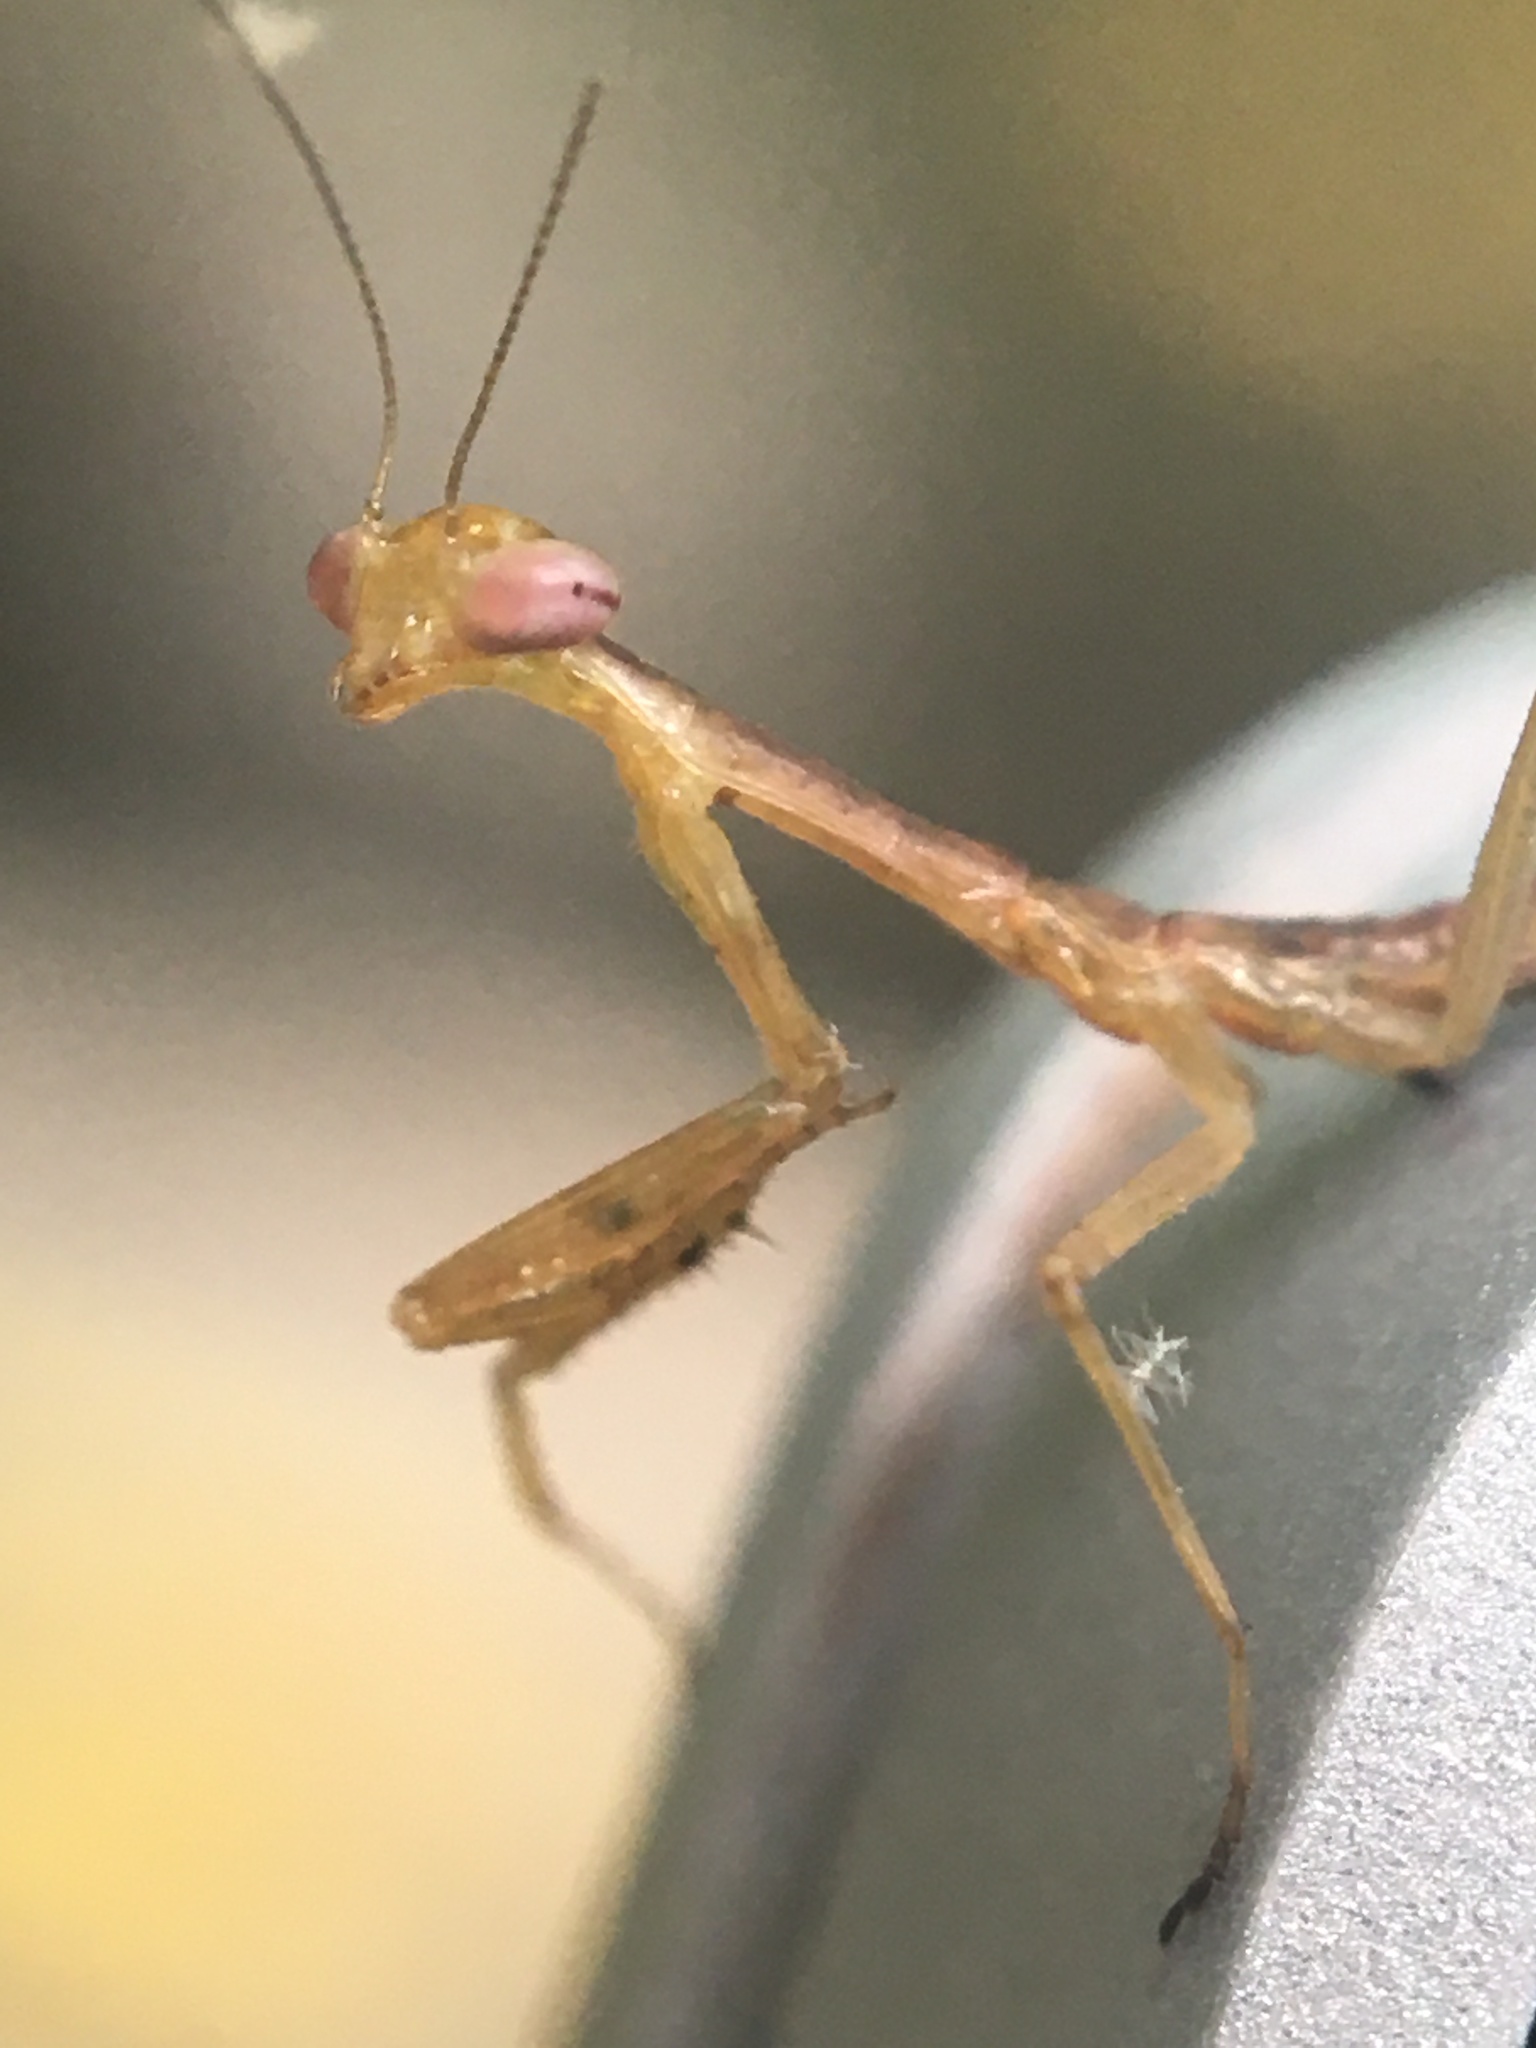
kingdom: Animalia
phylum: Arthropoda
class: Insecta
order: Mantodea
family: Mantidae
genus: Stagmomantis
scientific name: Stagmomantis carolina
